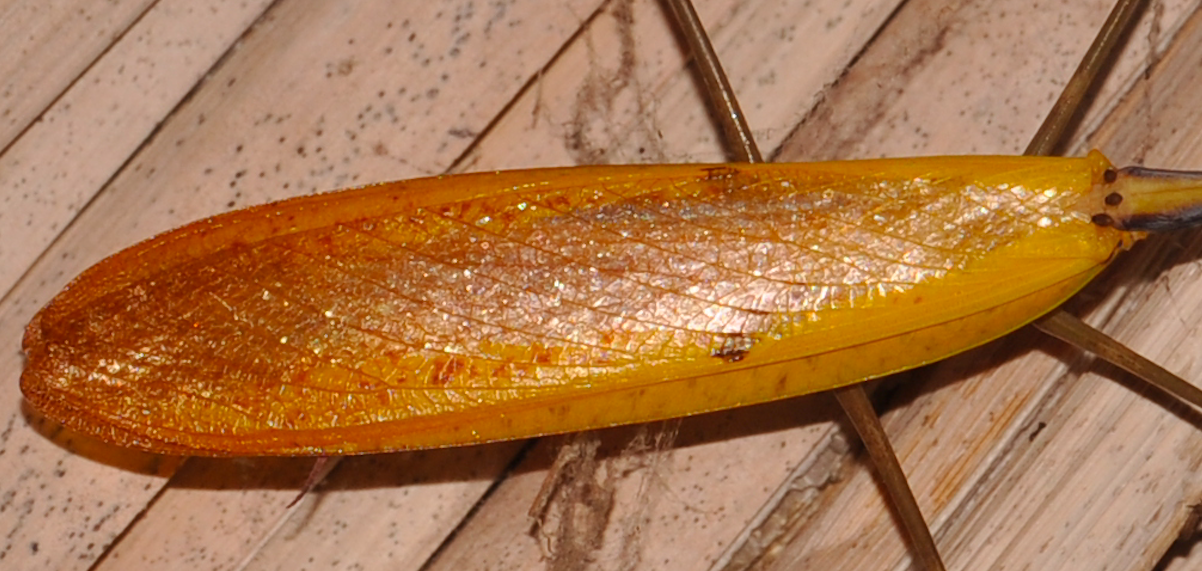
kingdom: Animalia
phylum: Arthropoda
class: Insecta
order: Mantodea
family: Mantidae
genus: Tisma
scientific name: Tisma freyi
